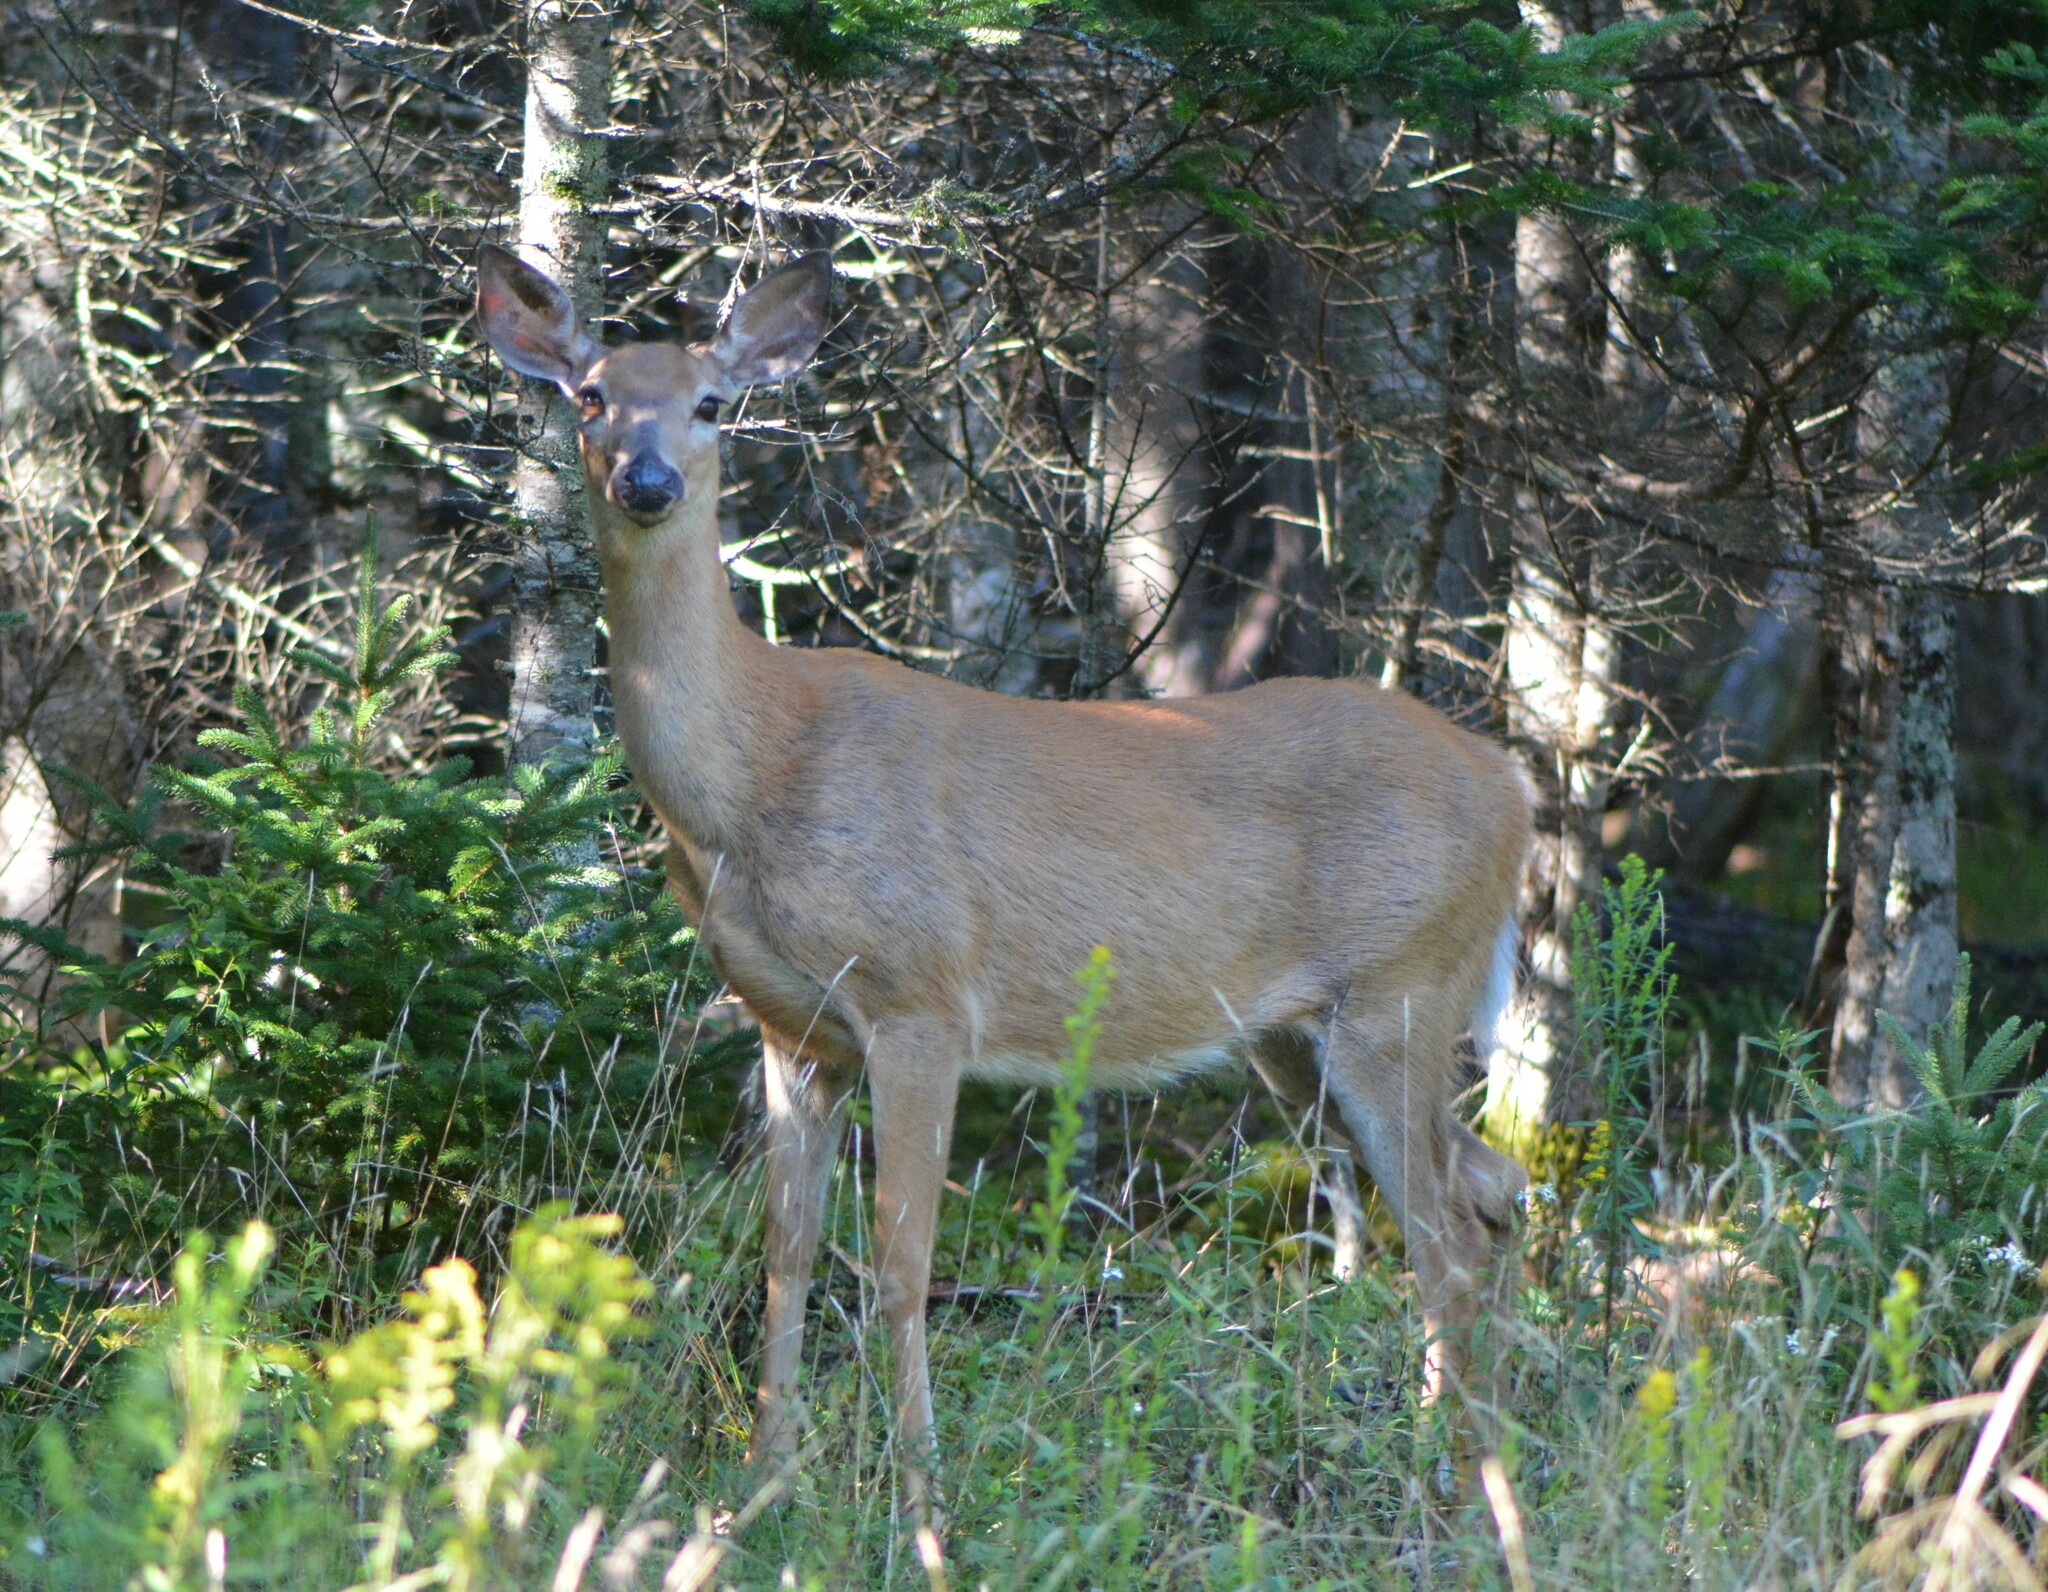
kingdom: Animalia
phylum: Chordata
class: Mammalia
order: Artiodactyla
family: Cervidae
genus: Odocoileus
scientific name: Odocoileus virginianus
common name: White-tailed deer
